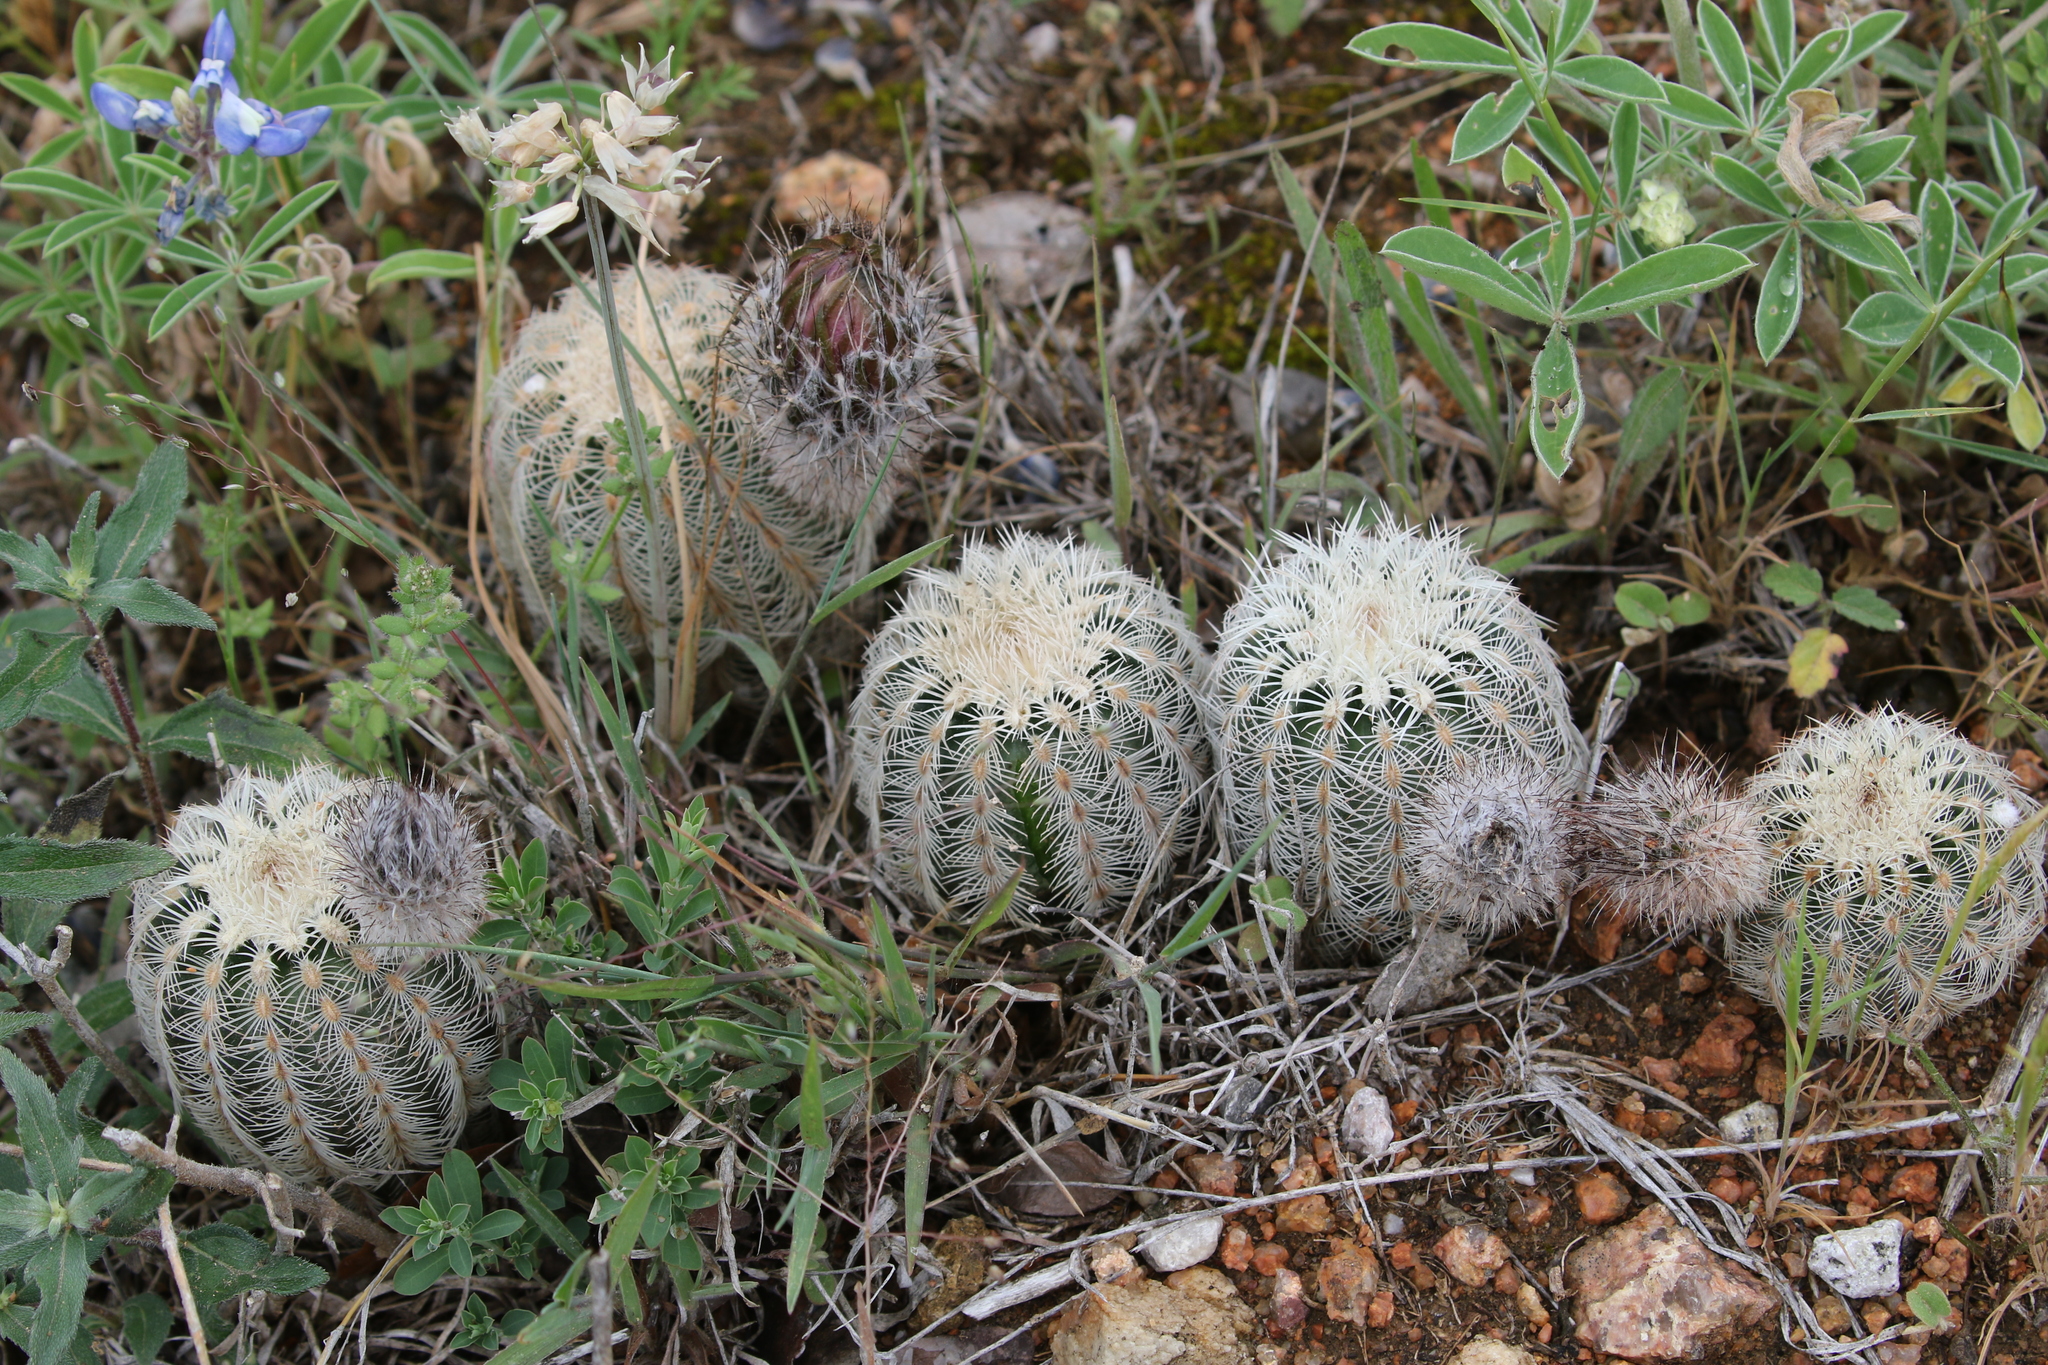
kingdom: Plantae
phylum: Tracheophyta
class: Magnoliopsida
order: Caryophyllales
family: Cactaceae
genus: Echinocereus
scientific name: Echinocereus reichenbachii
